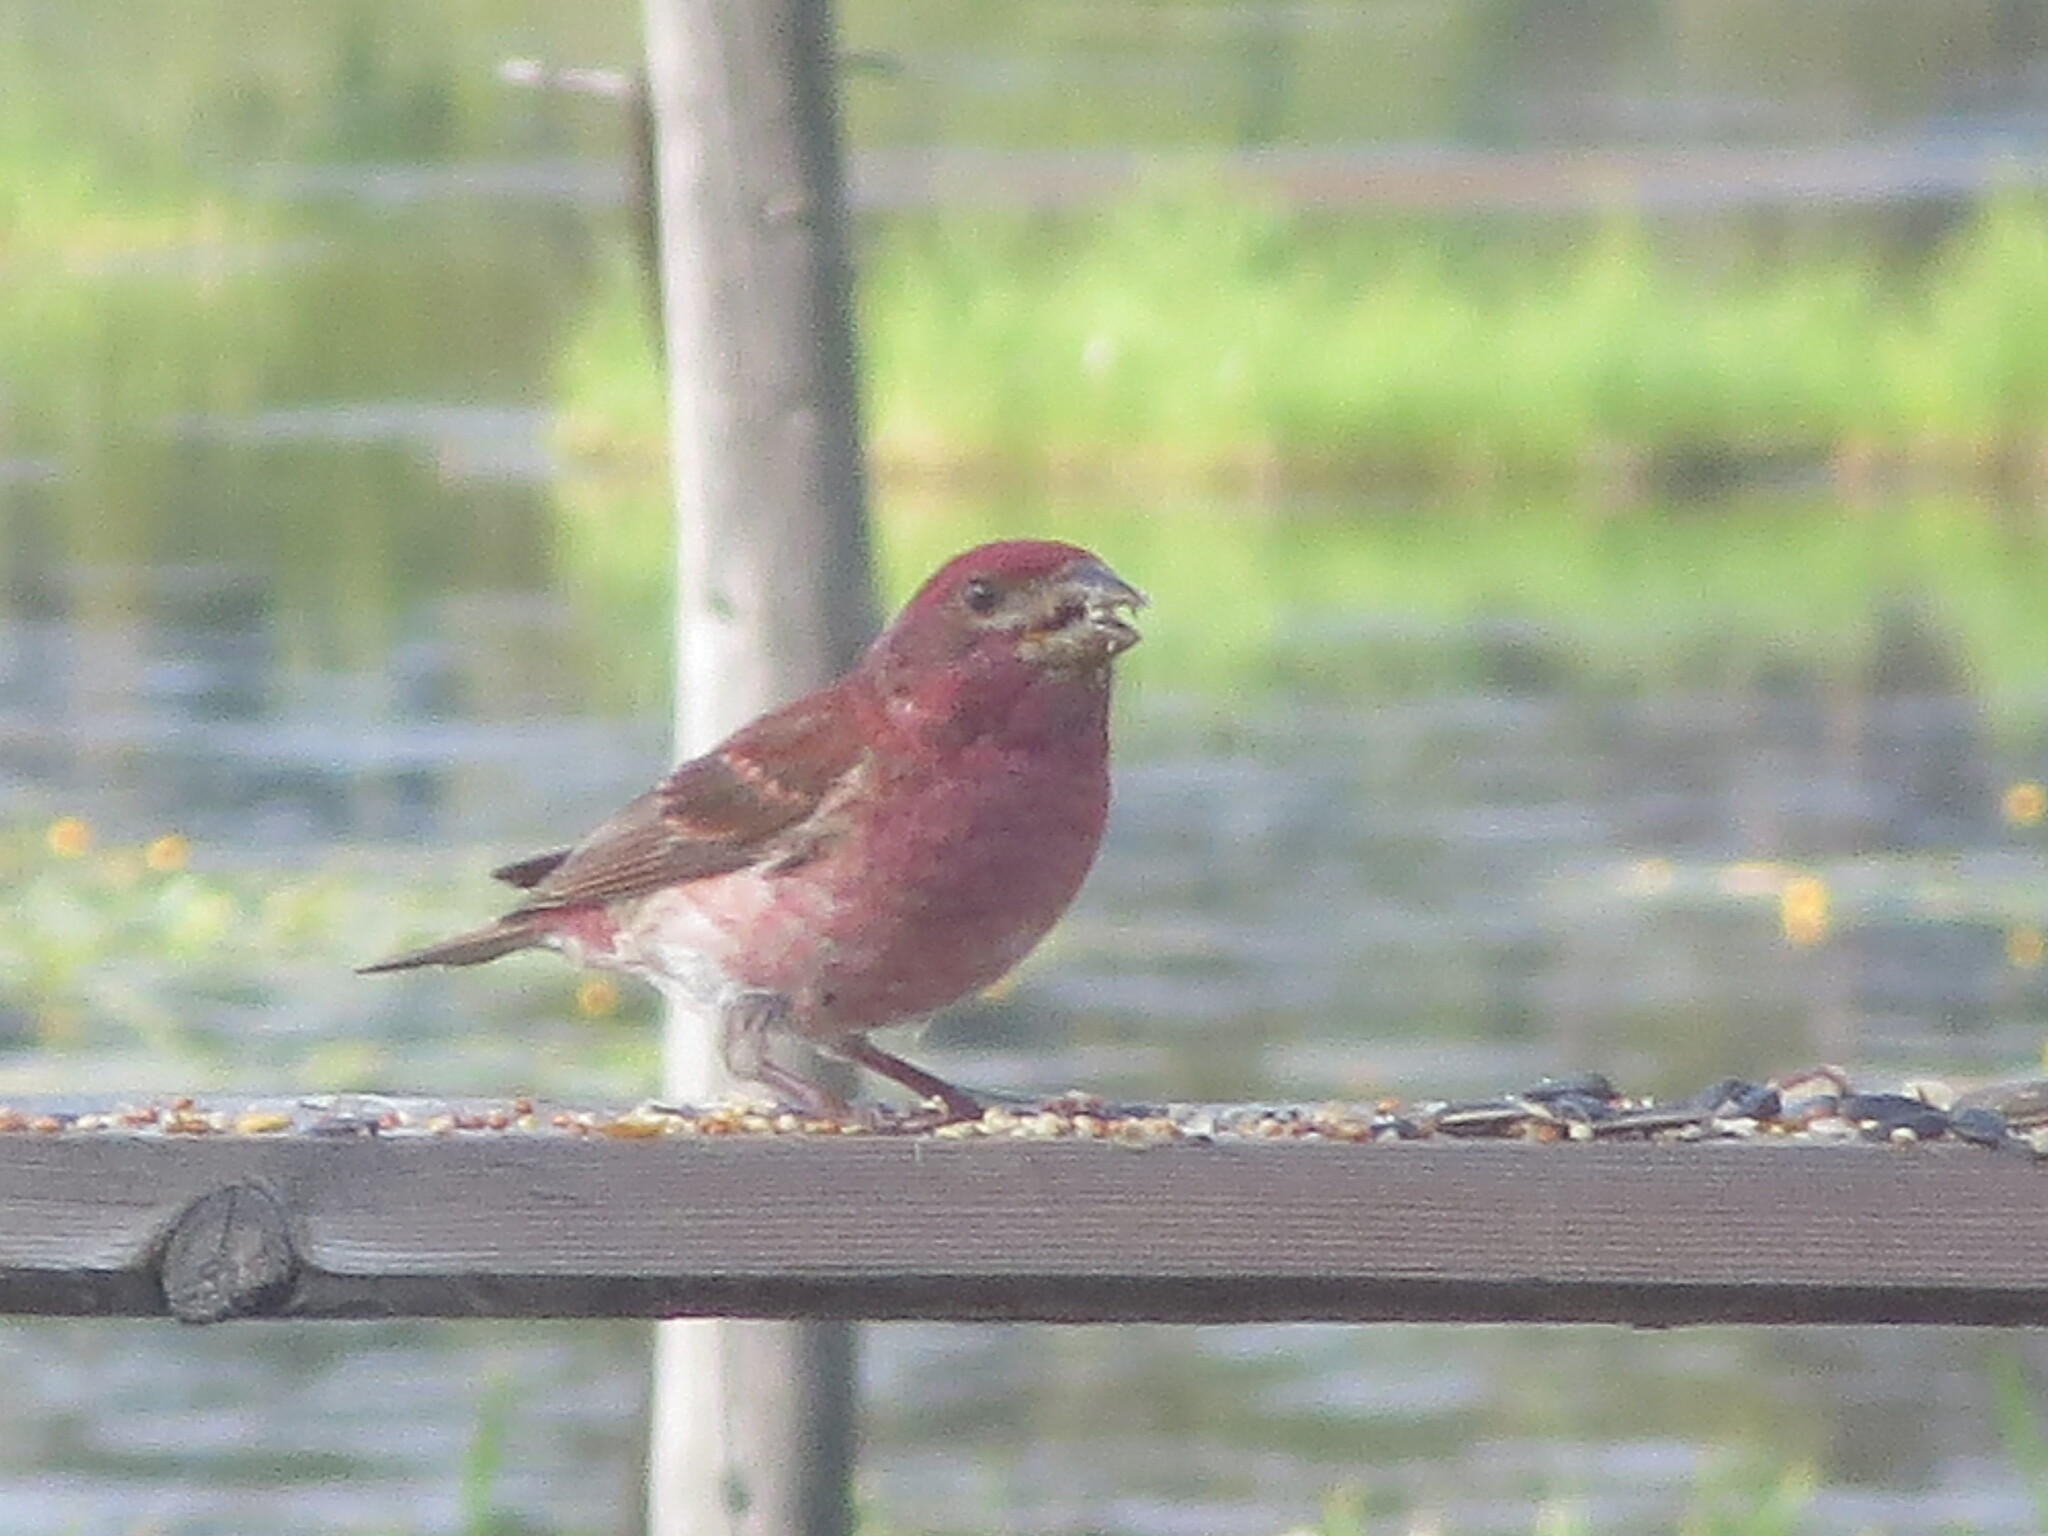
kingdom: Animalia
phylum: Chordata
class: Aves
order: Passeriformes
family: Fringillidae
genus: Haemorhous
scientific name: Haemorhous purpureus
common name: Purple finch
